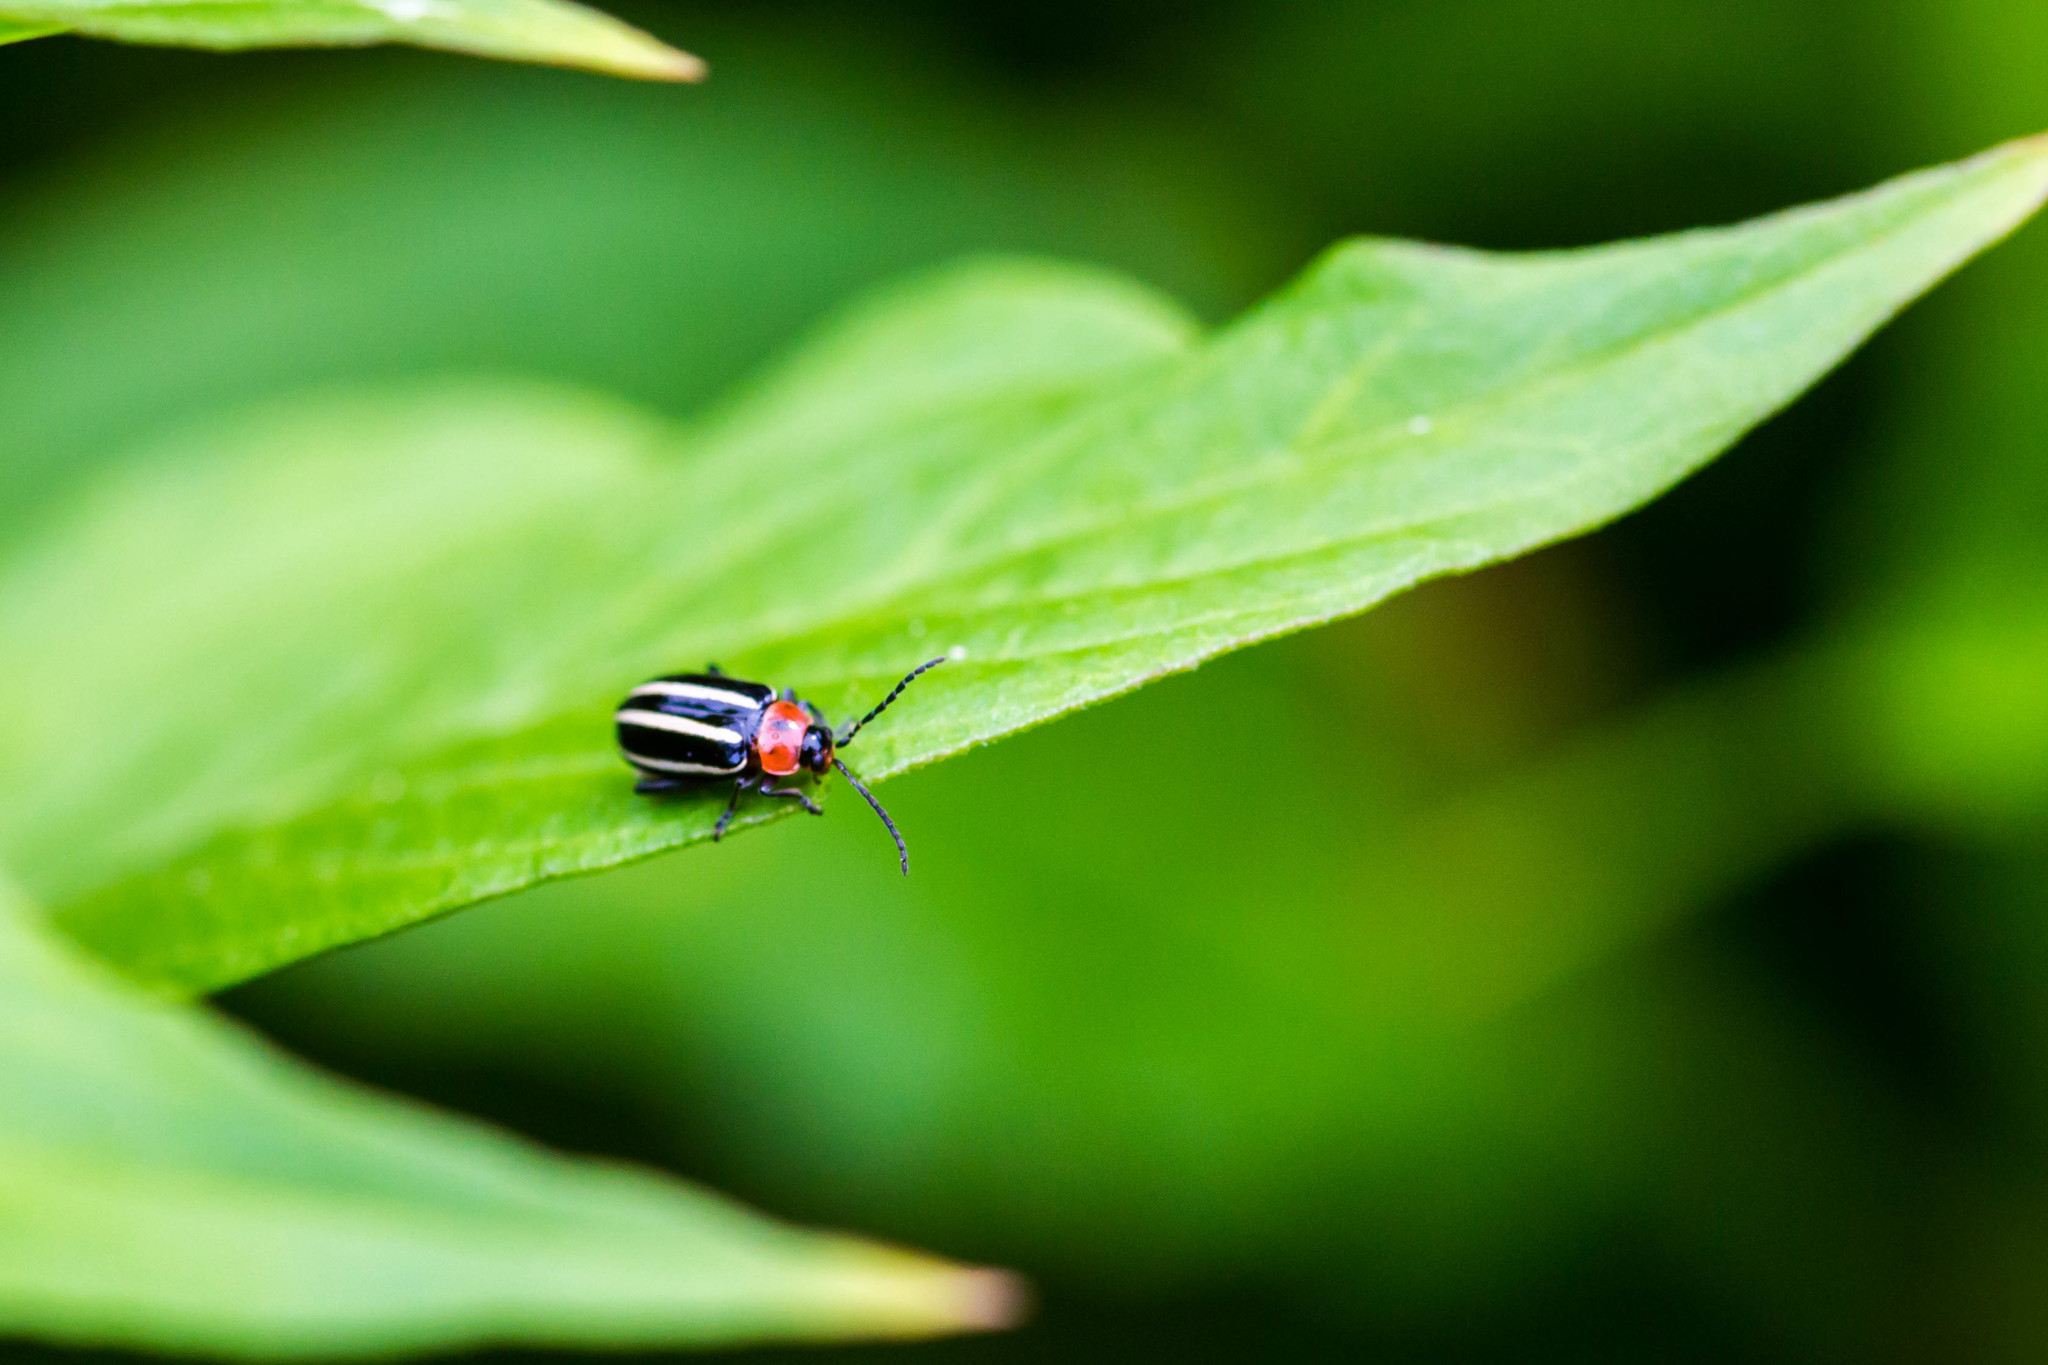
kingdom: Animalia
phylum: Arthropoda
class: Insecta
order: Coleoptera
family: Chrysomelidae
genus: Disonycha
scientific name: Disonycha glabrata
